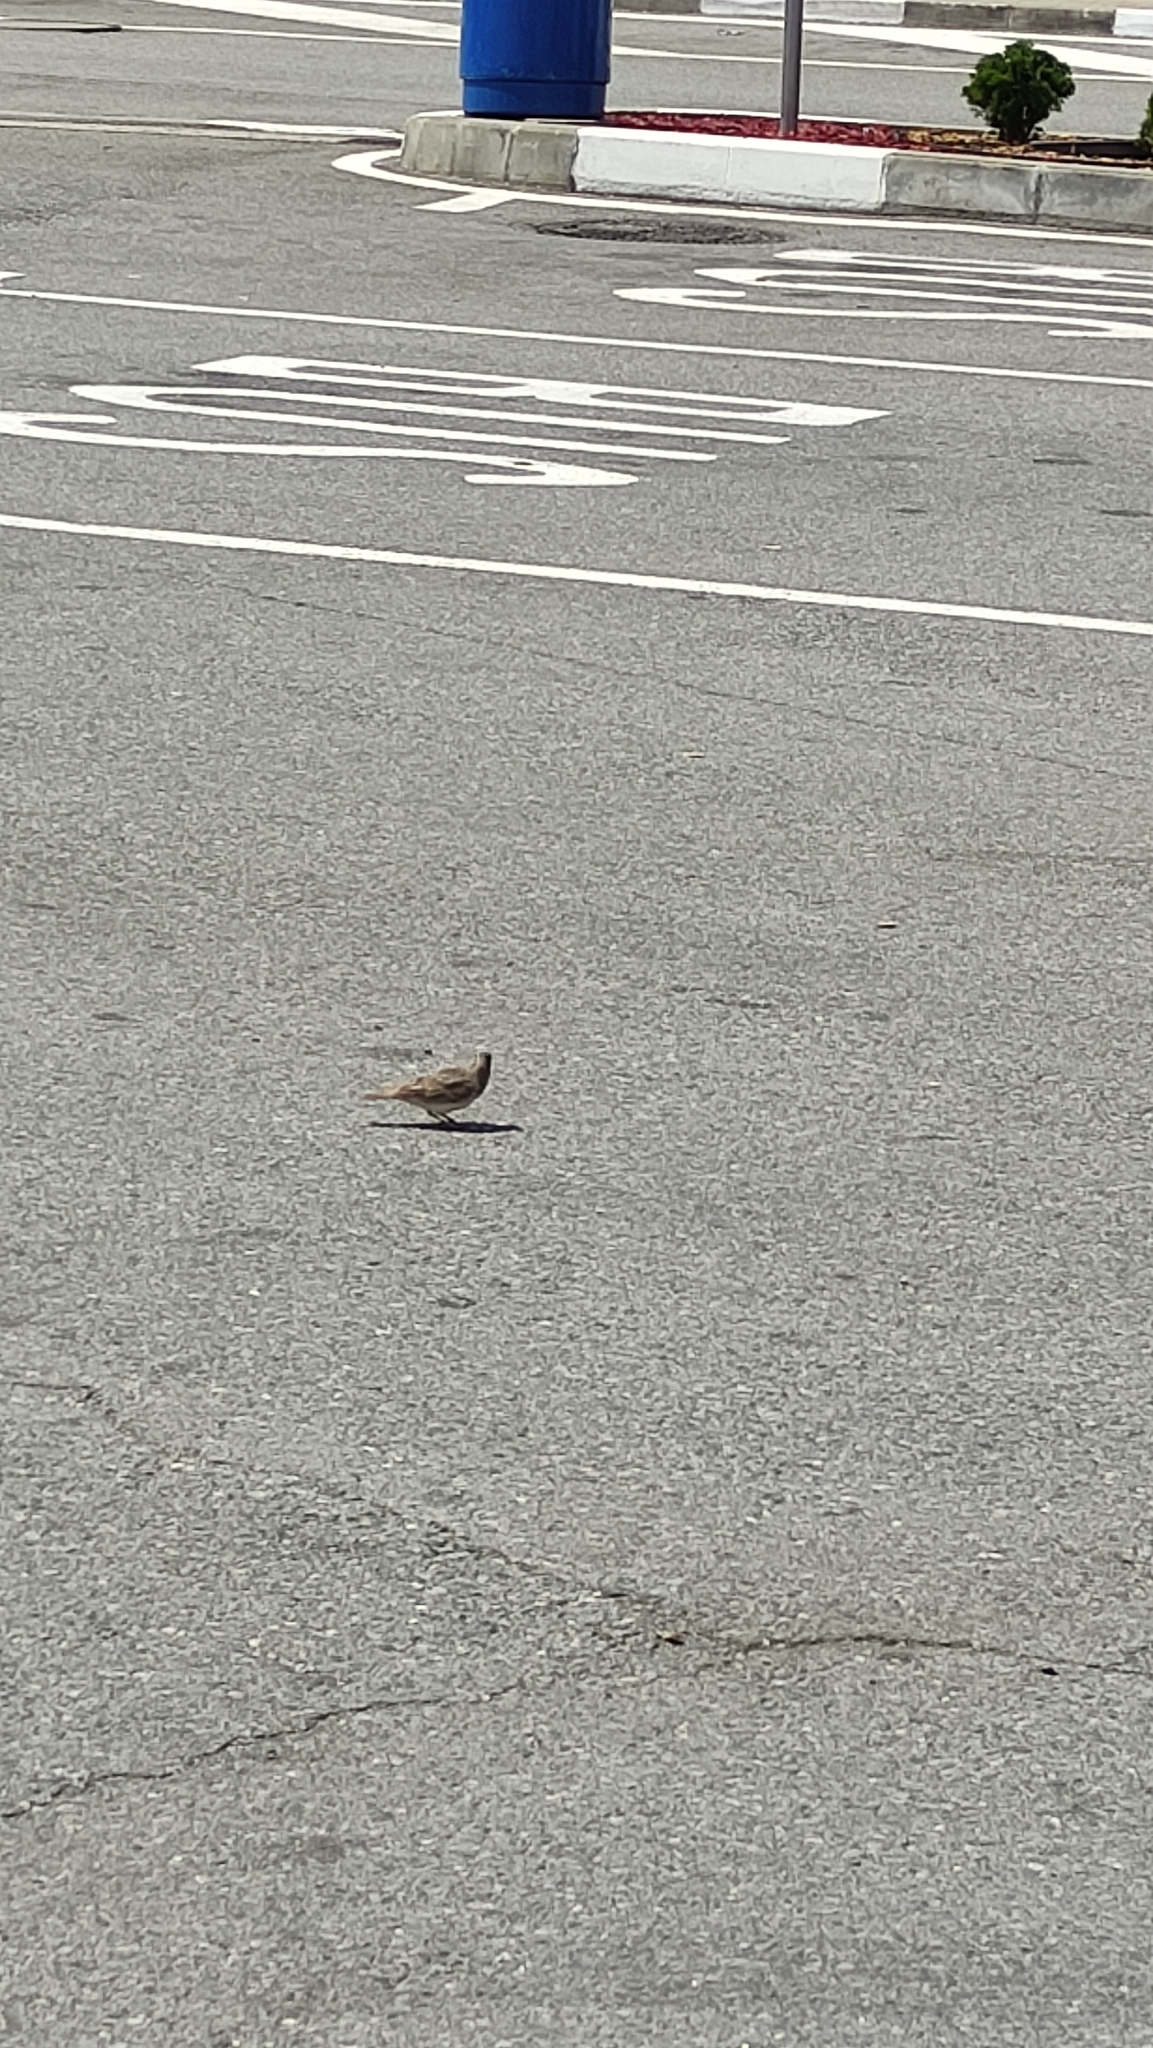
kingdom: Animalia
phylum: Chordata
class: Aves
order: Passeriformes
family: Alaudidae
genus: Galerida
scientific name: Galerida cristata
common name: Crested lark
